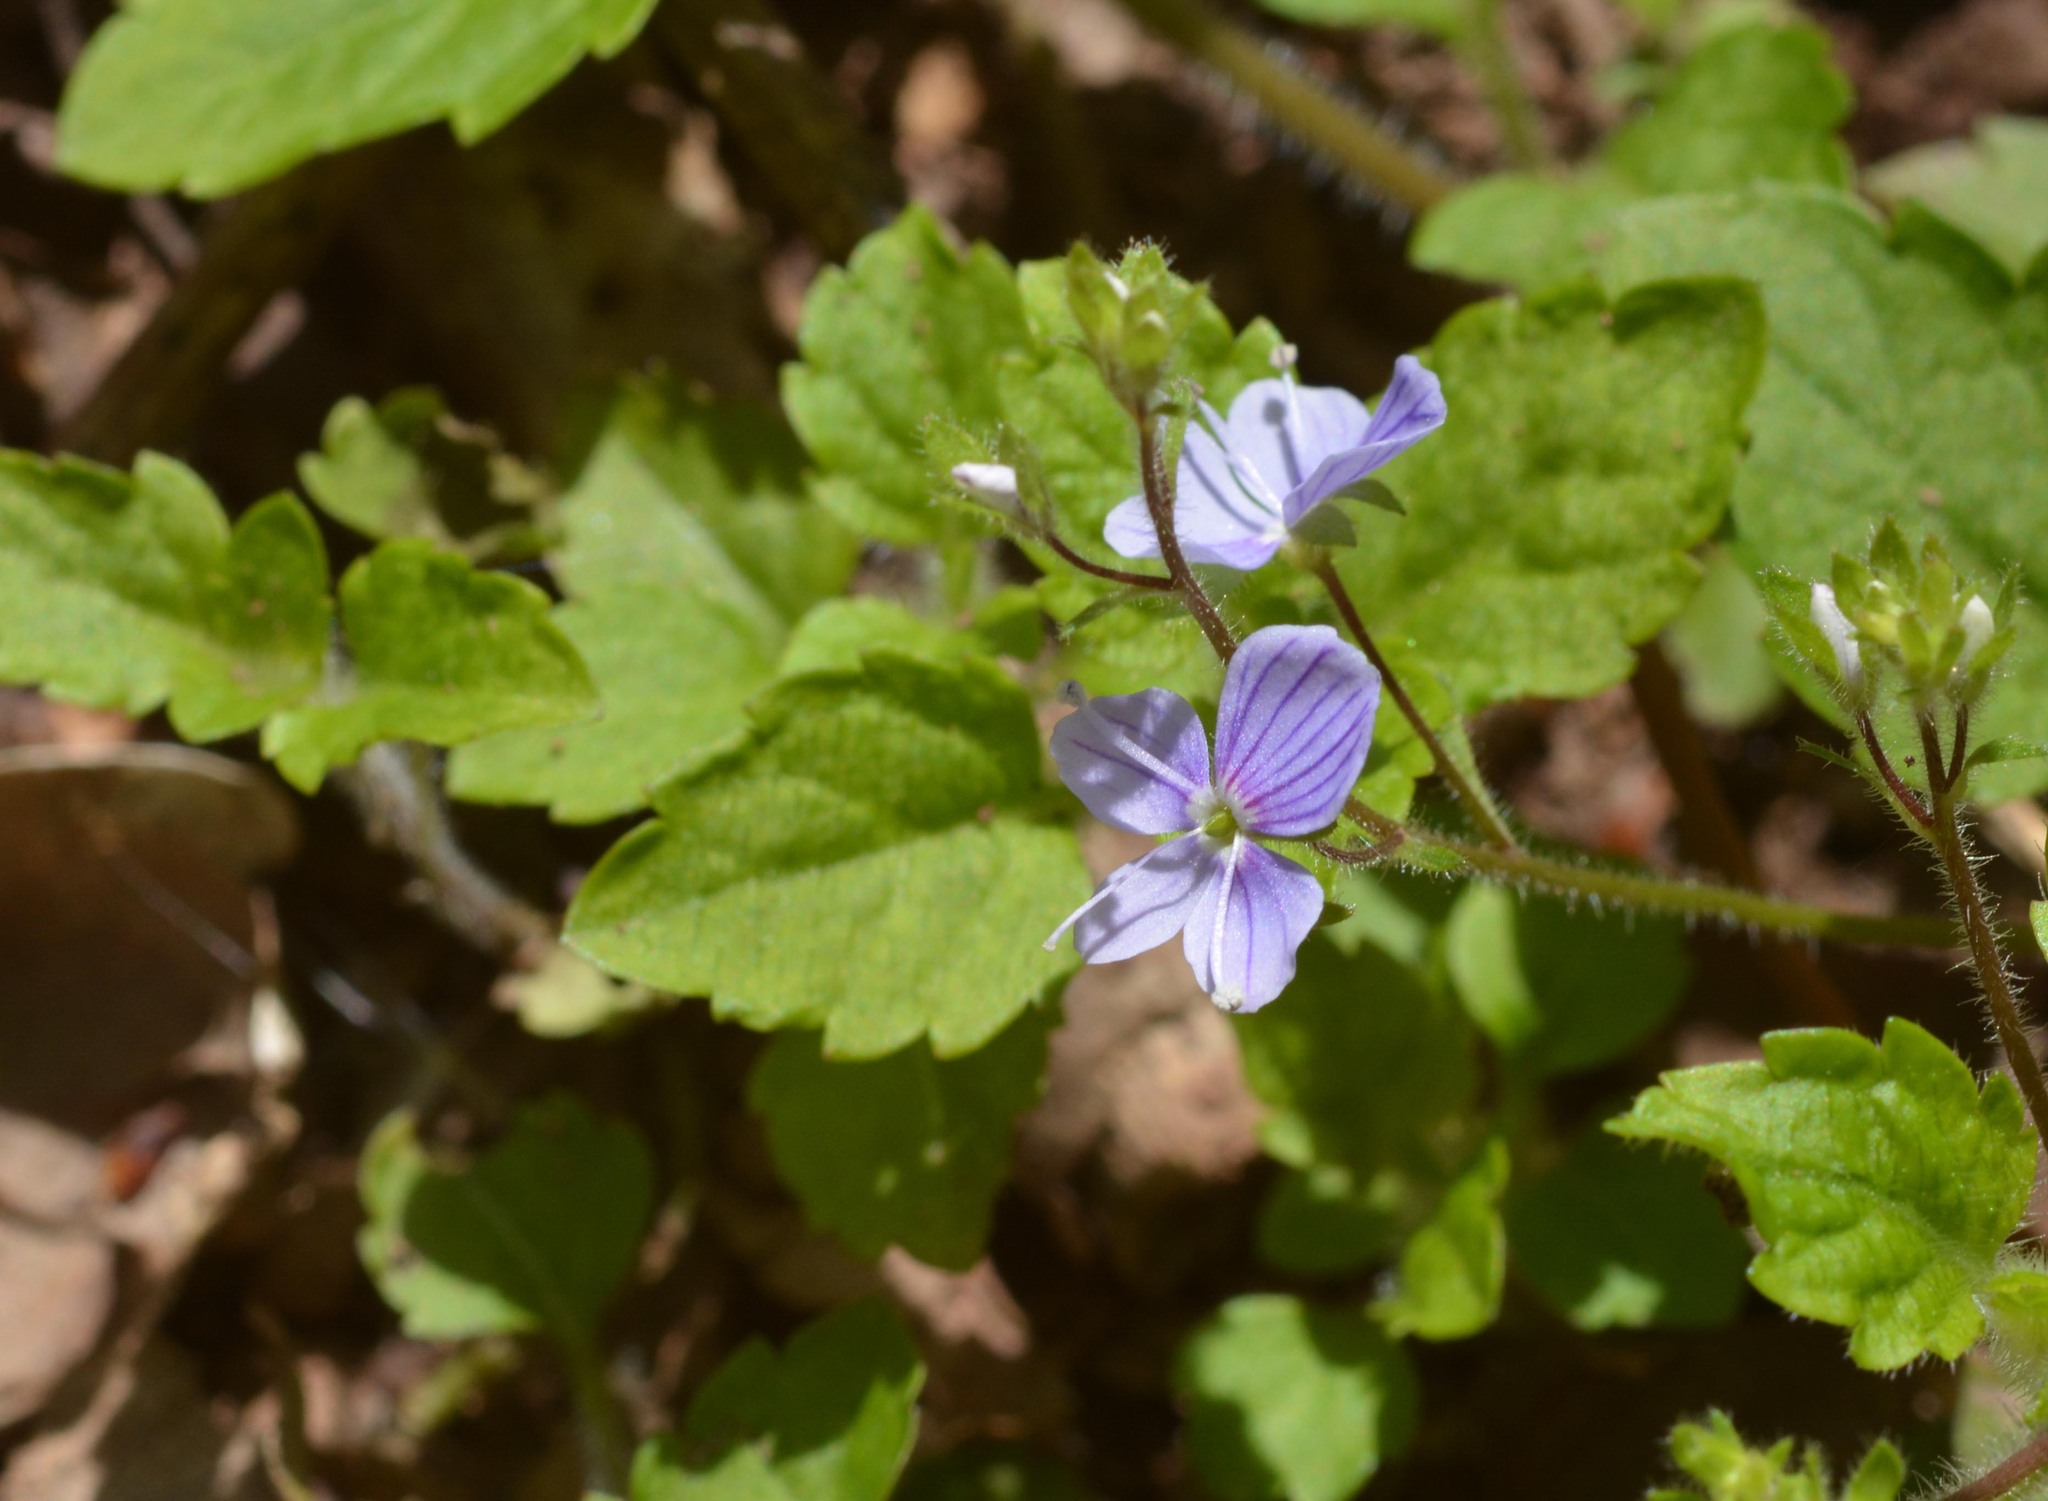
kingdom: Plantae
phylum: Tracheophyta
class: Magnoliopsida
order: Lamiales
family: Plantaginaceae
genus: Veronica
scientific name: Veronica montana
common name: Wood speedwell
